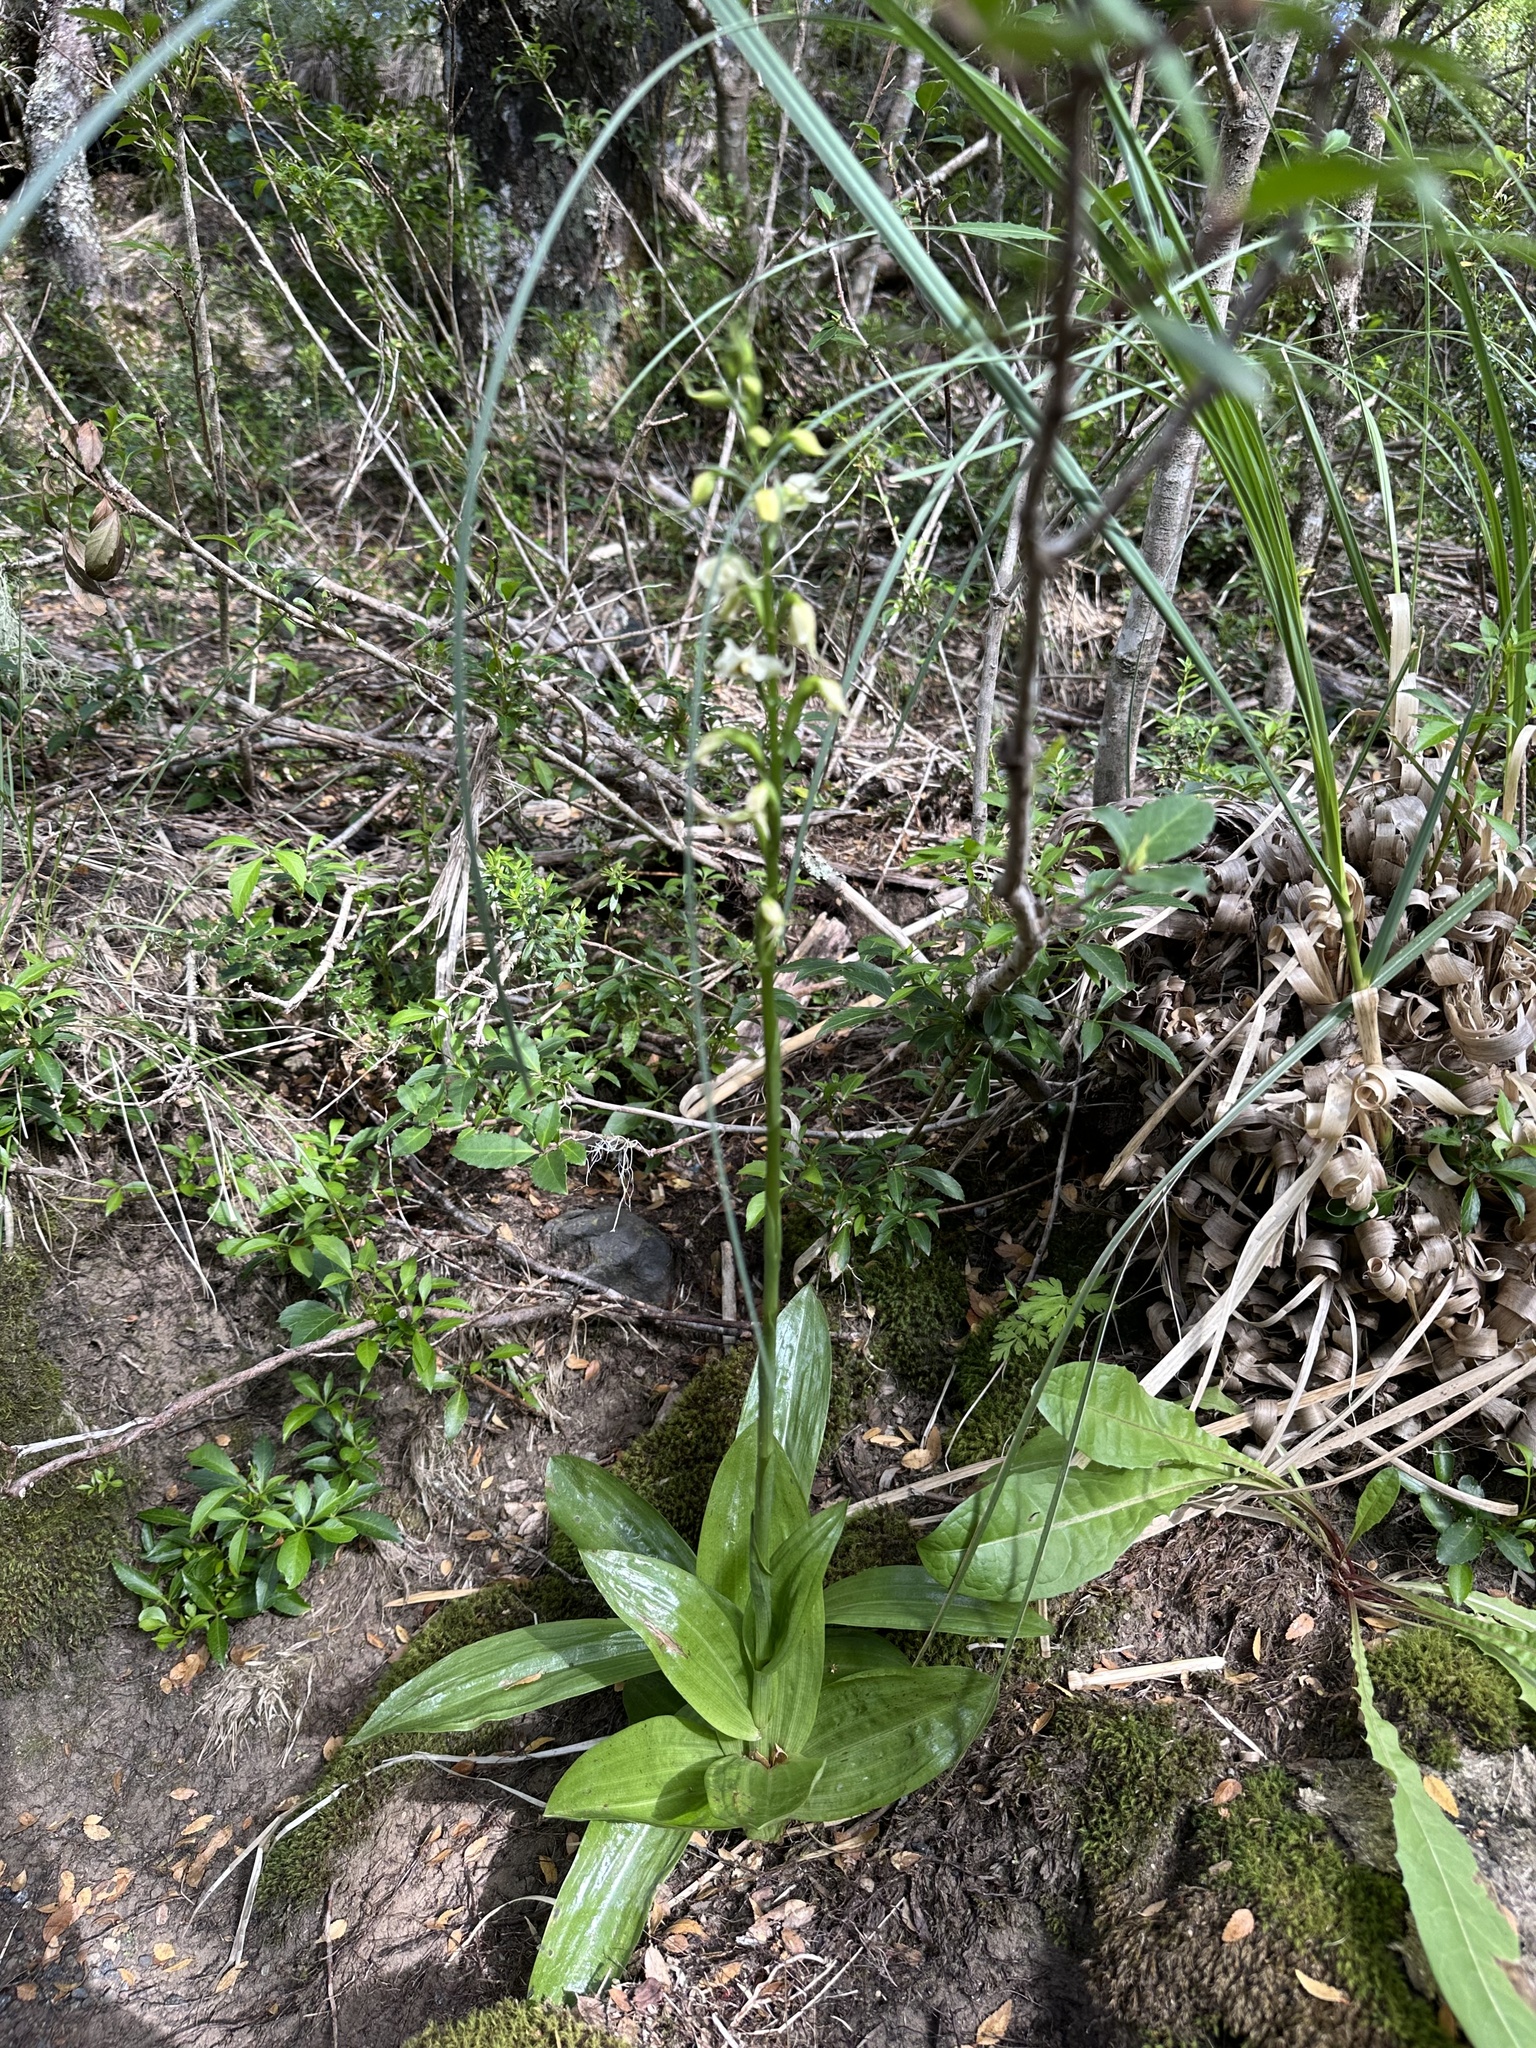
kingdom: Plantae
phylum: Tracheophyta
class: Liliopsida
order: Asparagales
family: Orchidaceae
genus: Gavilea
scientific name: Gavilea araucana
